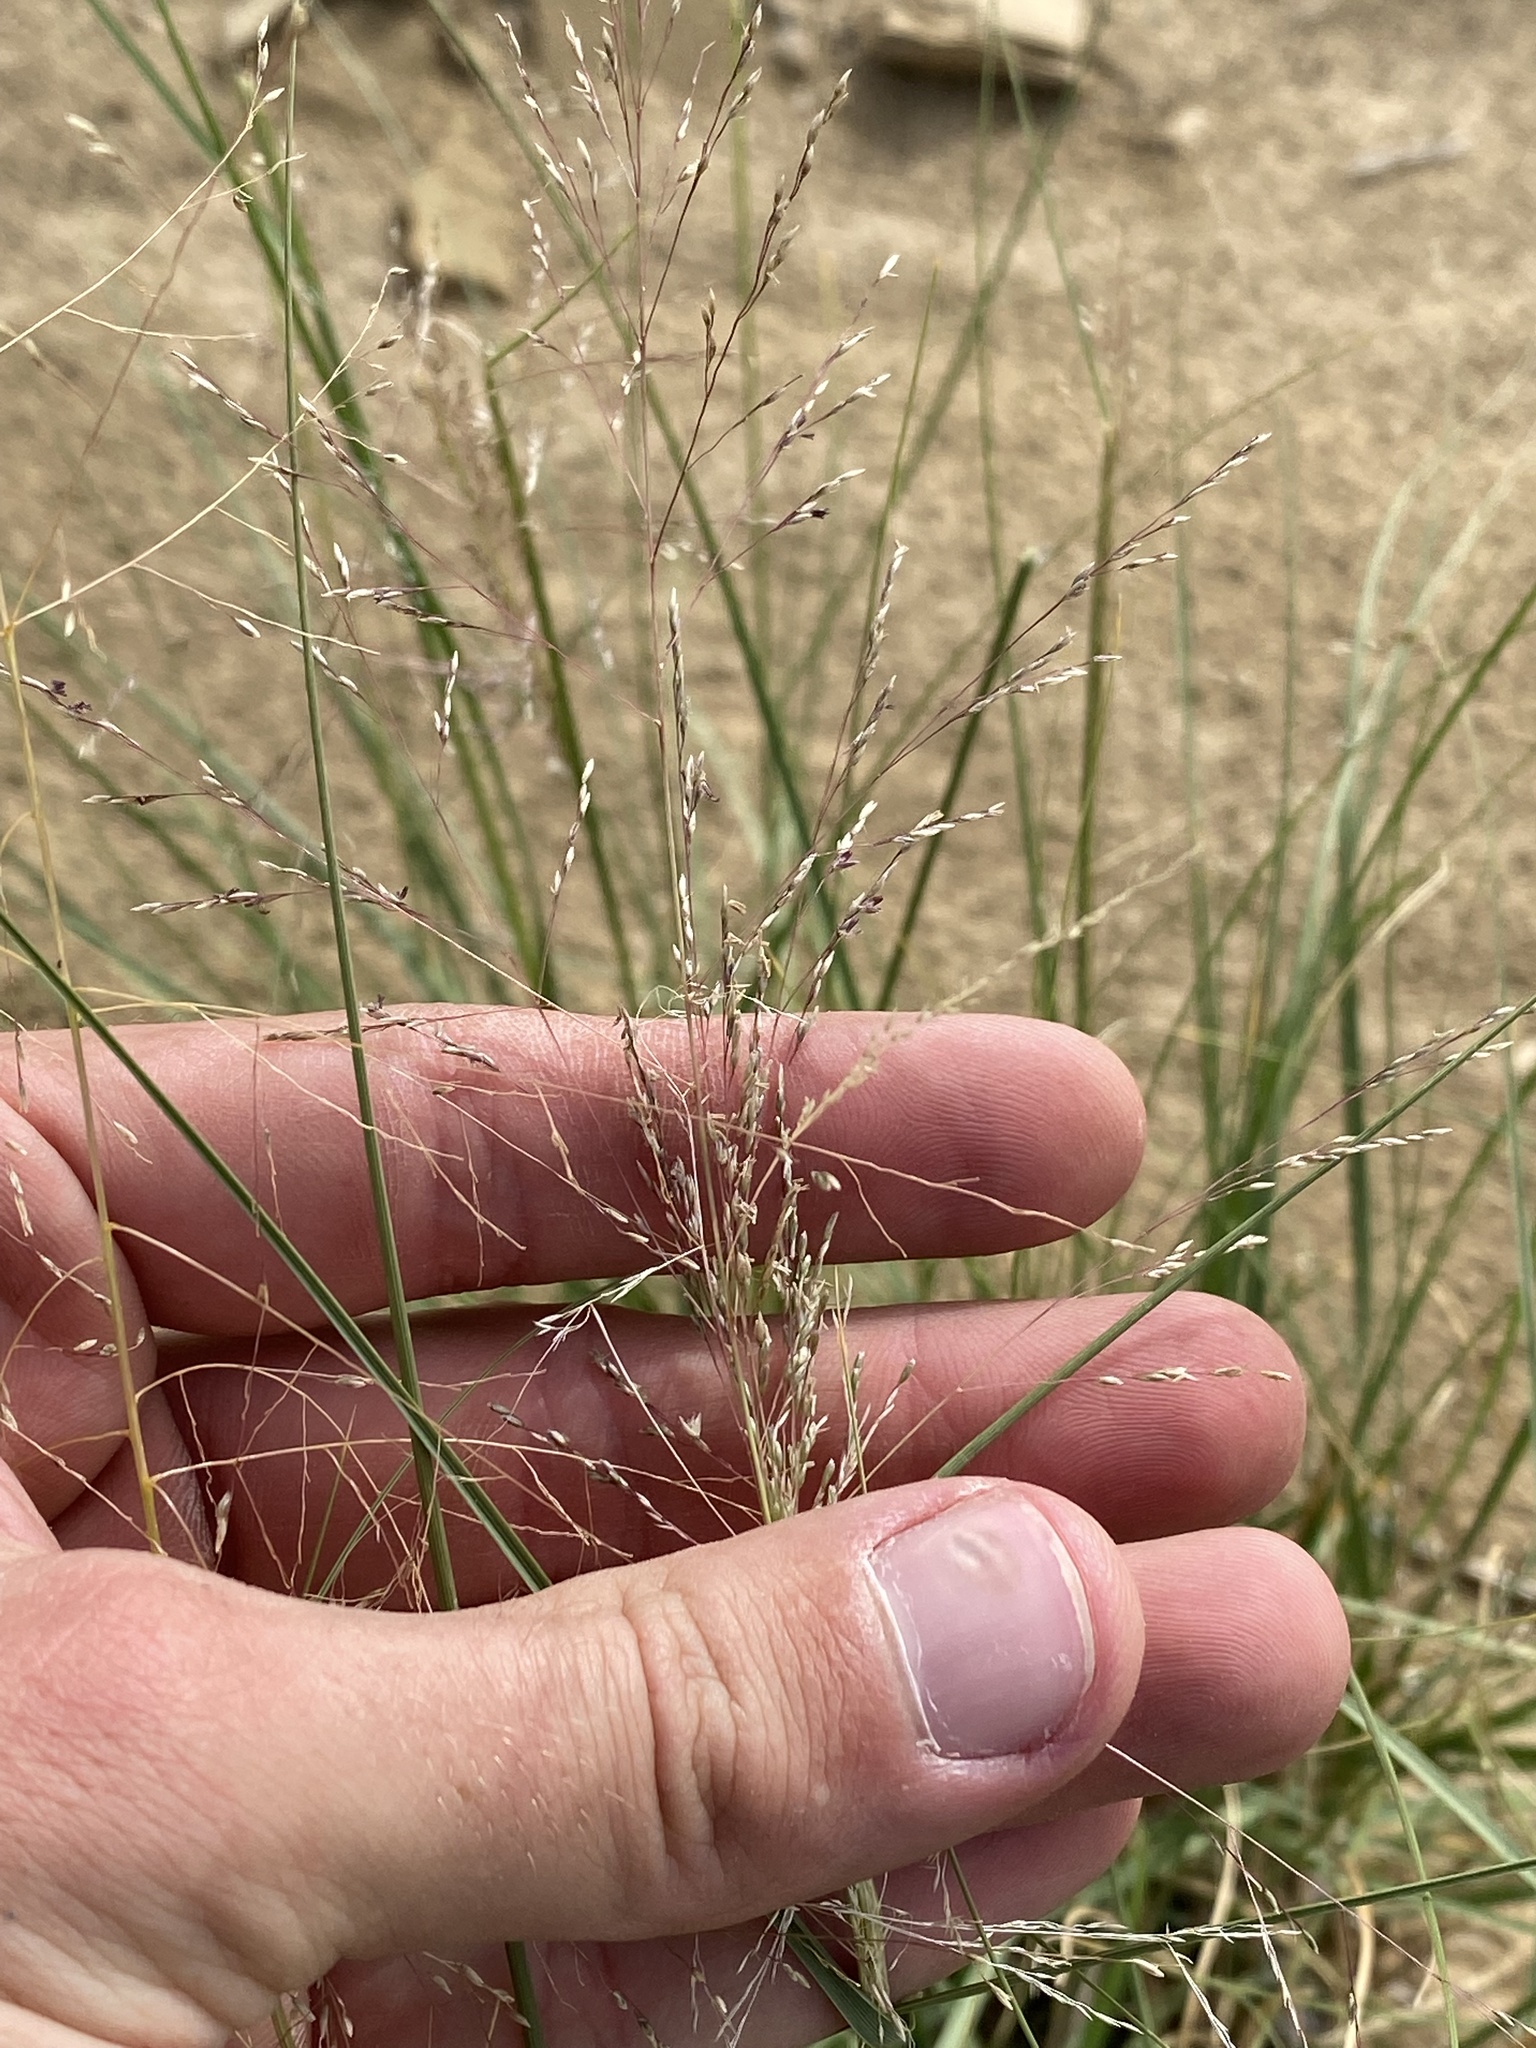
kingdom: Plantae
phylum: Tracheophyta
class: Liliopsida
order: Poales
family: Poaceae
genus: Sporobolus
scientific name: Sporobolus airoides
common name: Alkali sacaton
